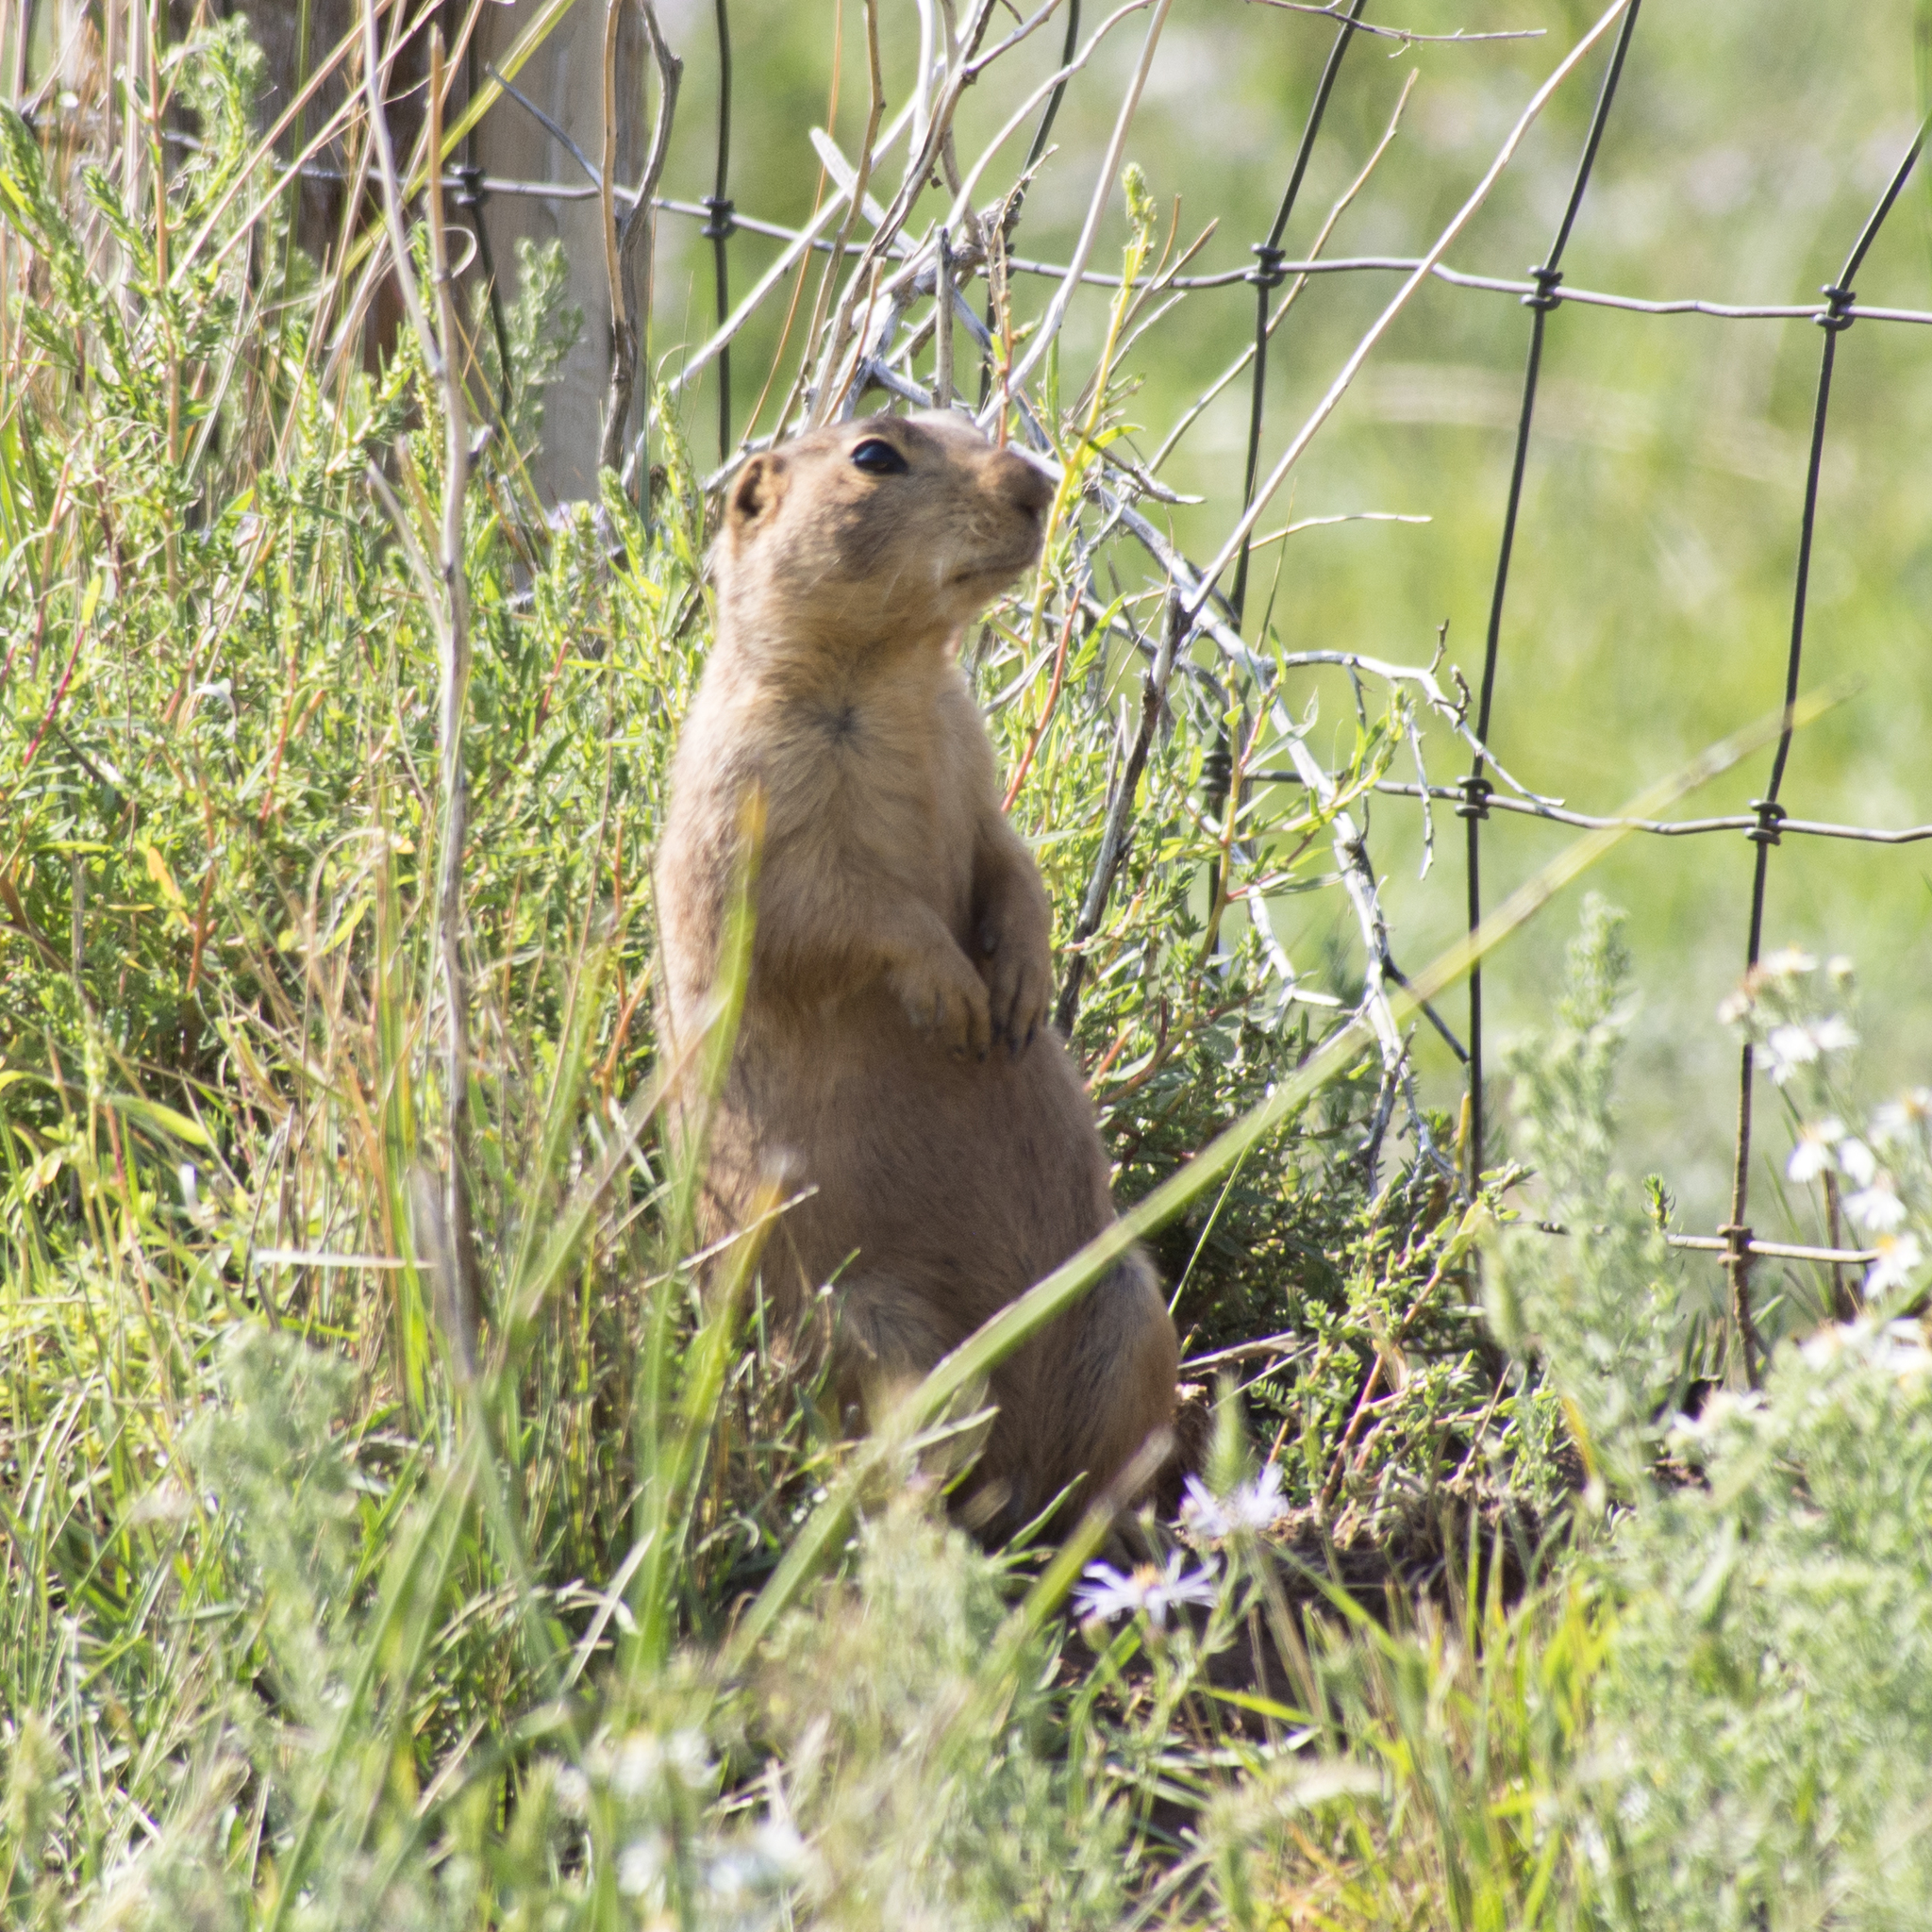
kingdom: Animalia
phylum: Chordata
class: Mammalia
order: Rodentia
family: Sciuridae
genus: Cynomys
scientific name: Cynomys gunnisoni
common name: Gunnison's prairie dog
